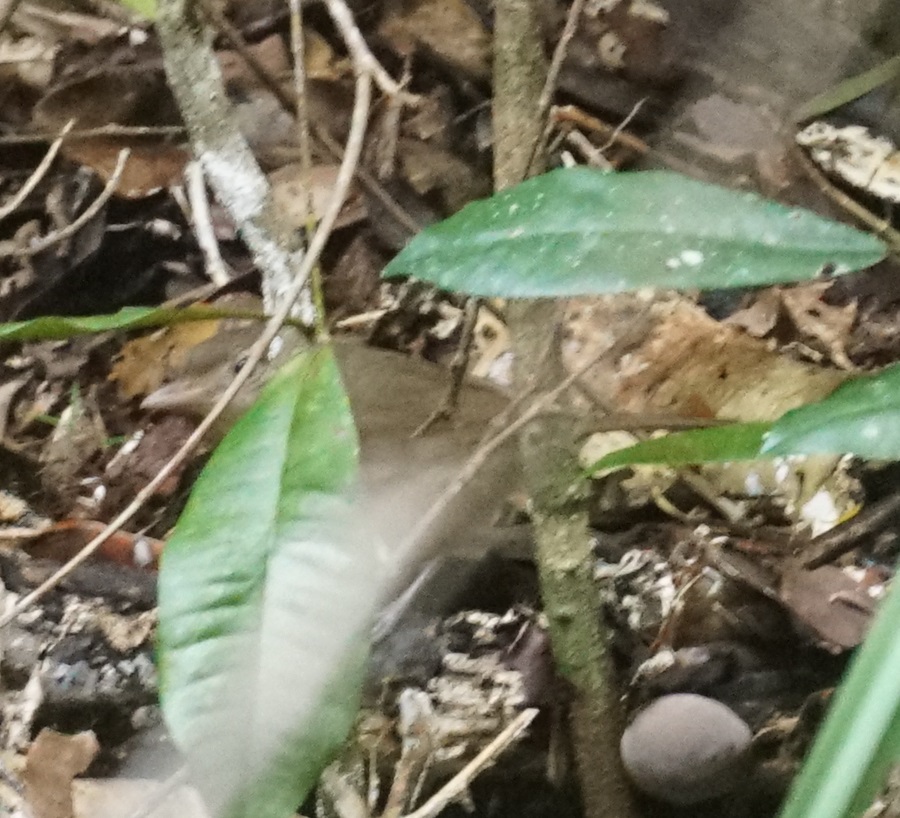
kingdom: Animalia
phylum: Chordata
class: Aves
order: Passeriformes
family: Pachycephalidae
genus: Colluricincla
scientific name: Colluricincla rufogaster
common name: Rufous shrikethrush
